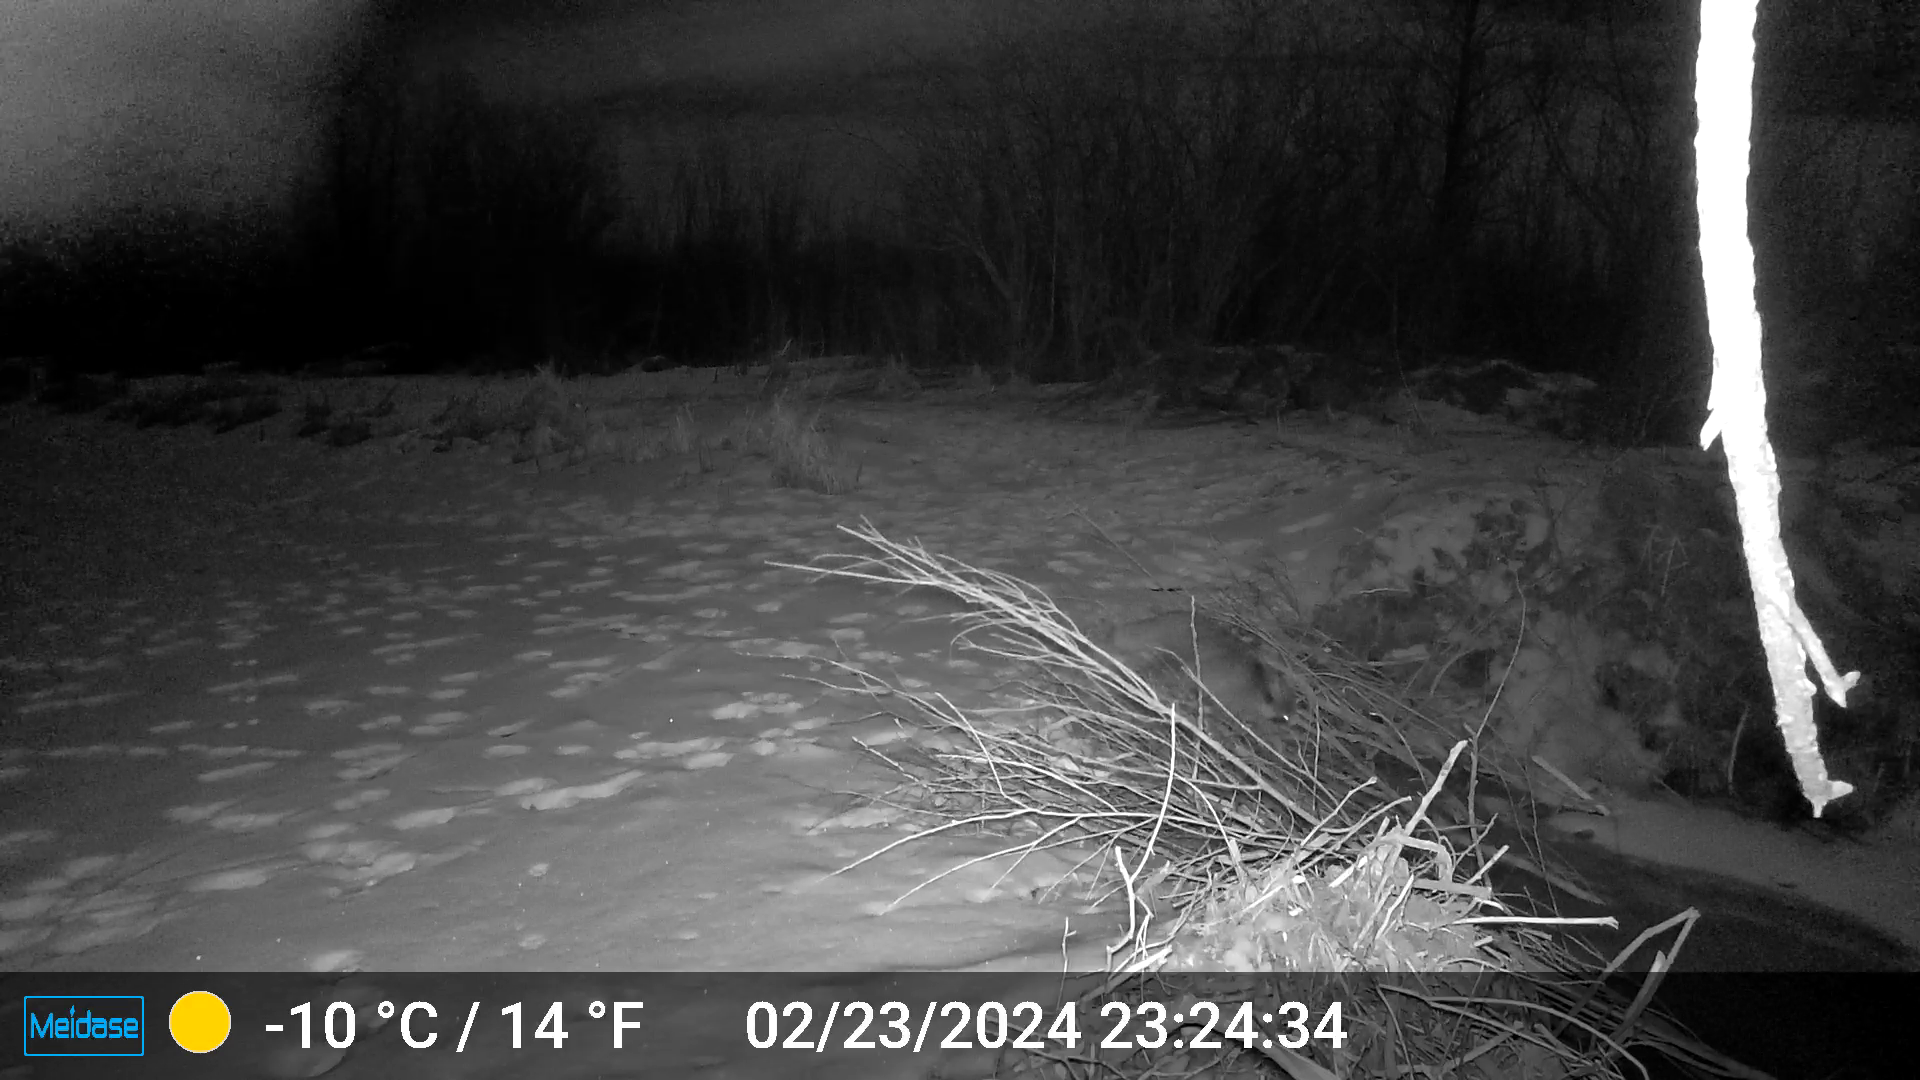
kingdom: Animalia
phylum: Chordata
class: Mammalia
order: Carnivora
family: Procyonidae
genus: Procyon
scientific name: Procyon lotor
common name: Raccoon
